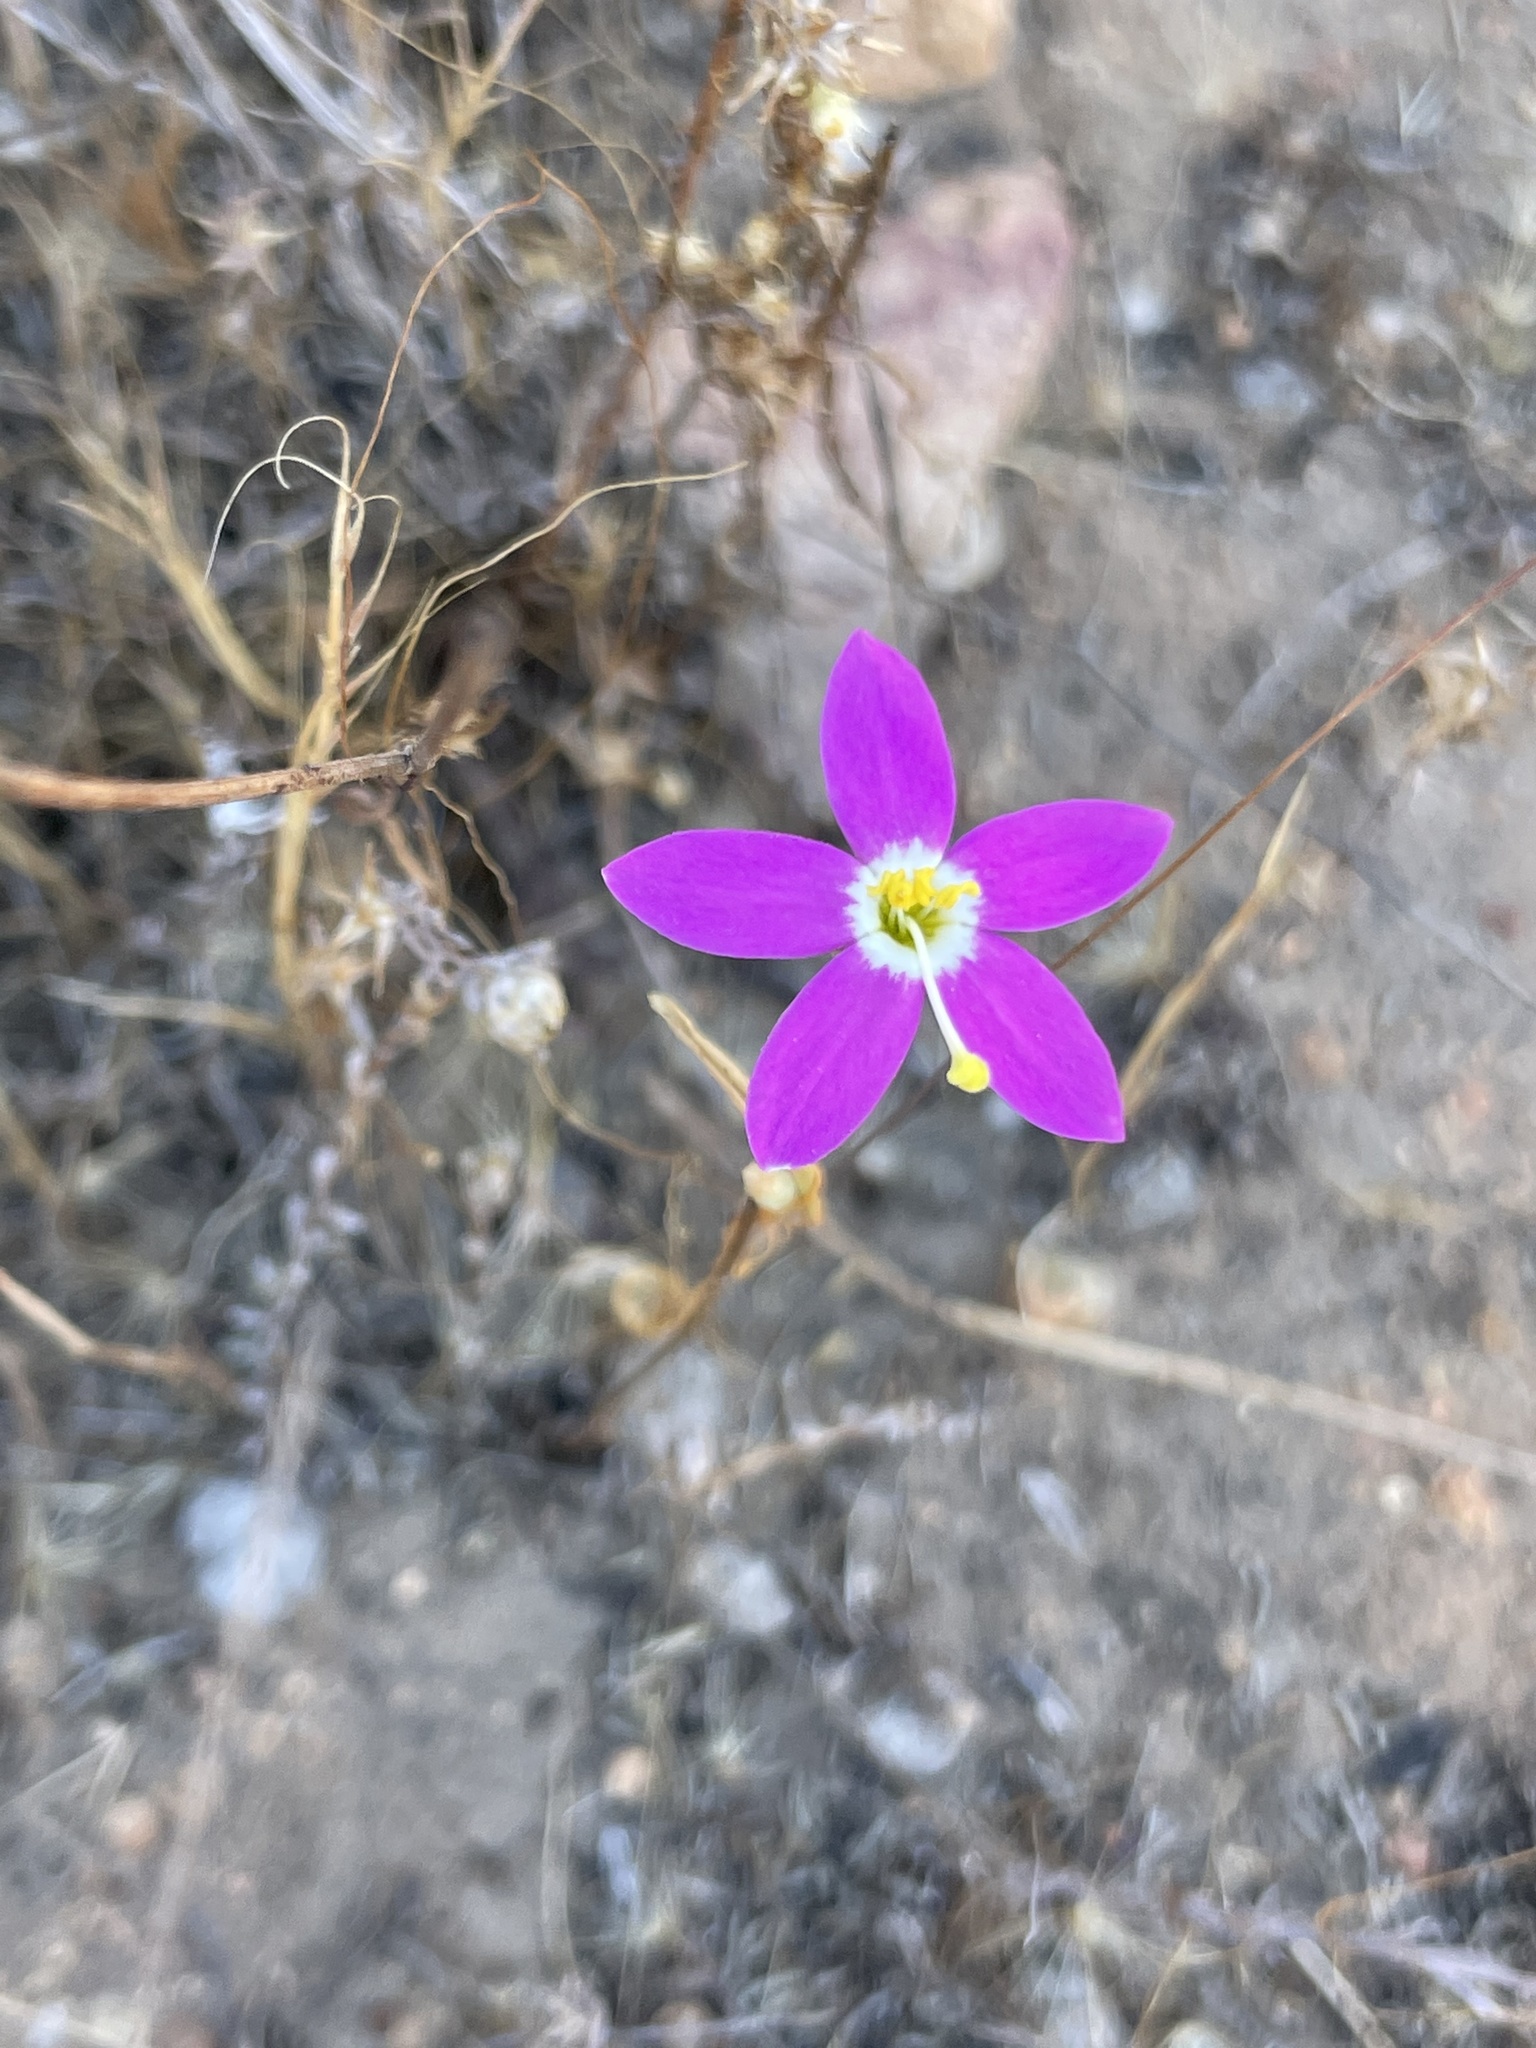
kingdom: Plantae
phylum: Tracheophyta
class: Magnoliopsida
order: Gentianales
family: Gentianaceae
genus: Zeltnera
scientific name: Zeltnera venusta
